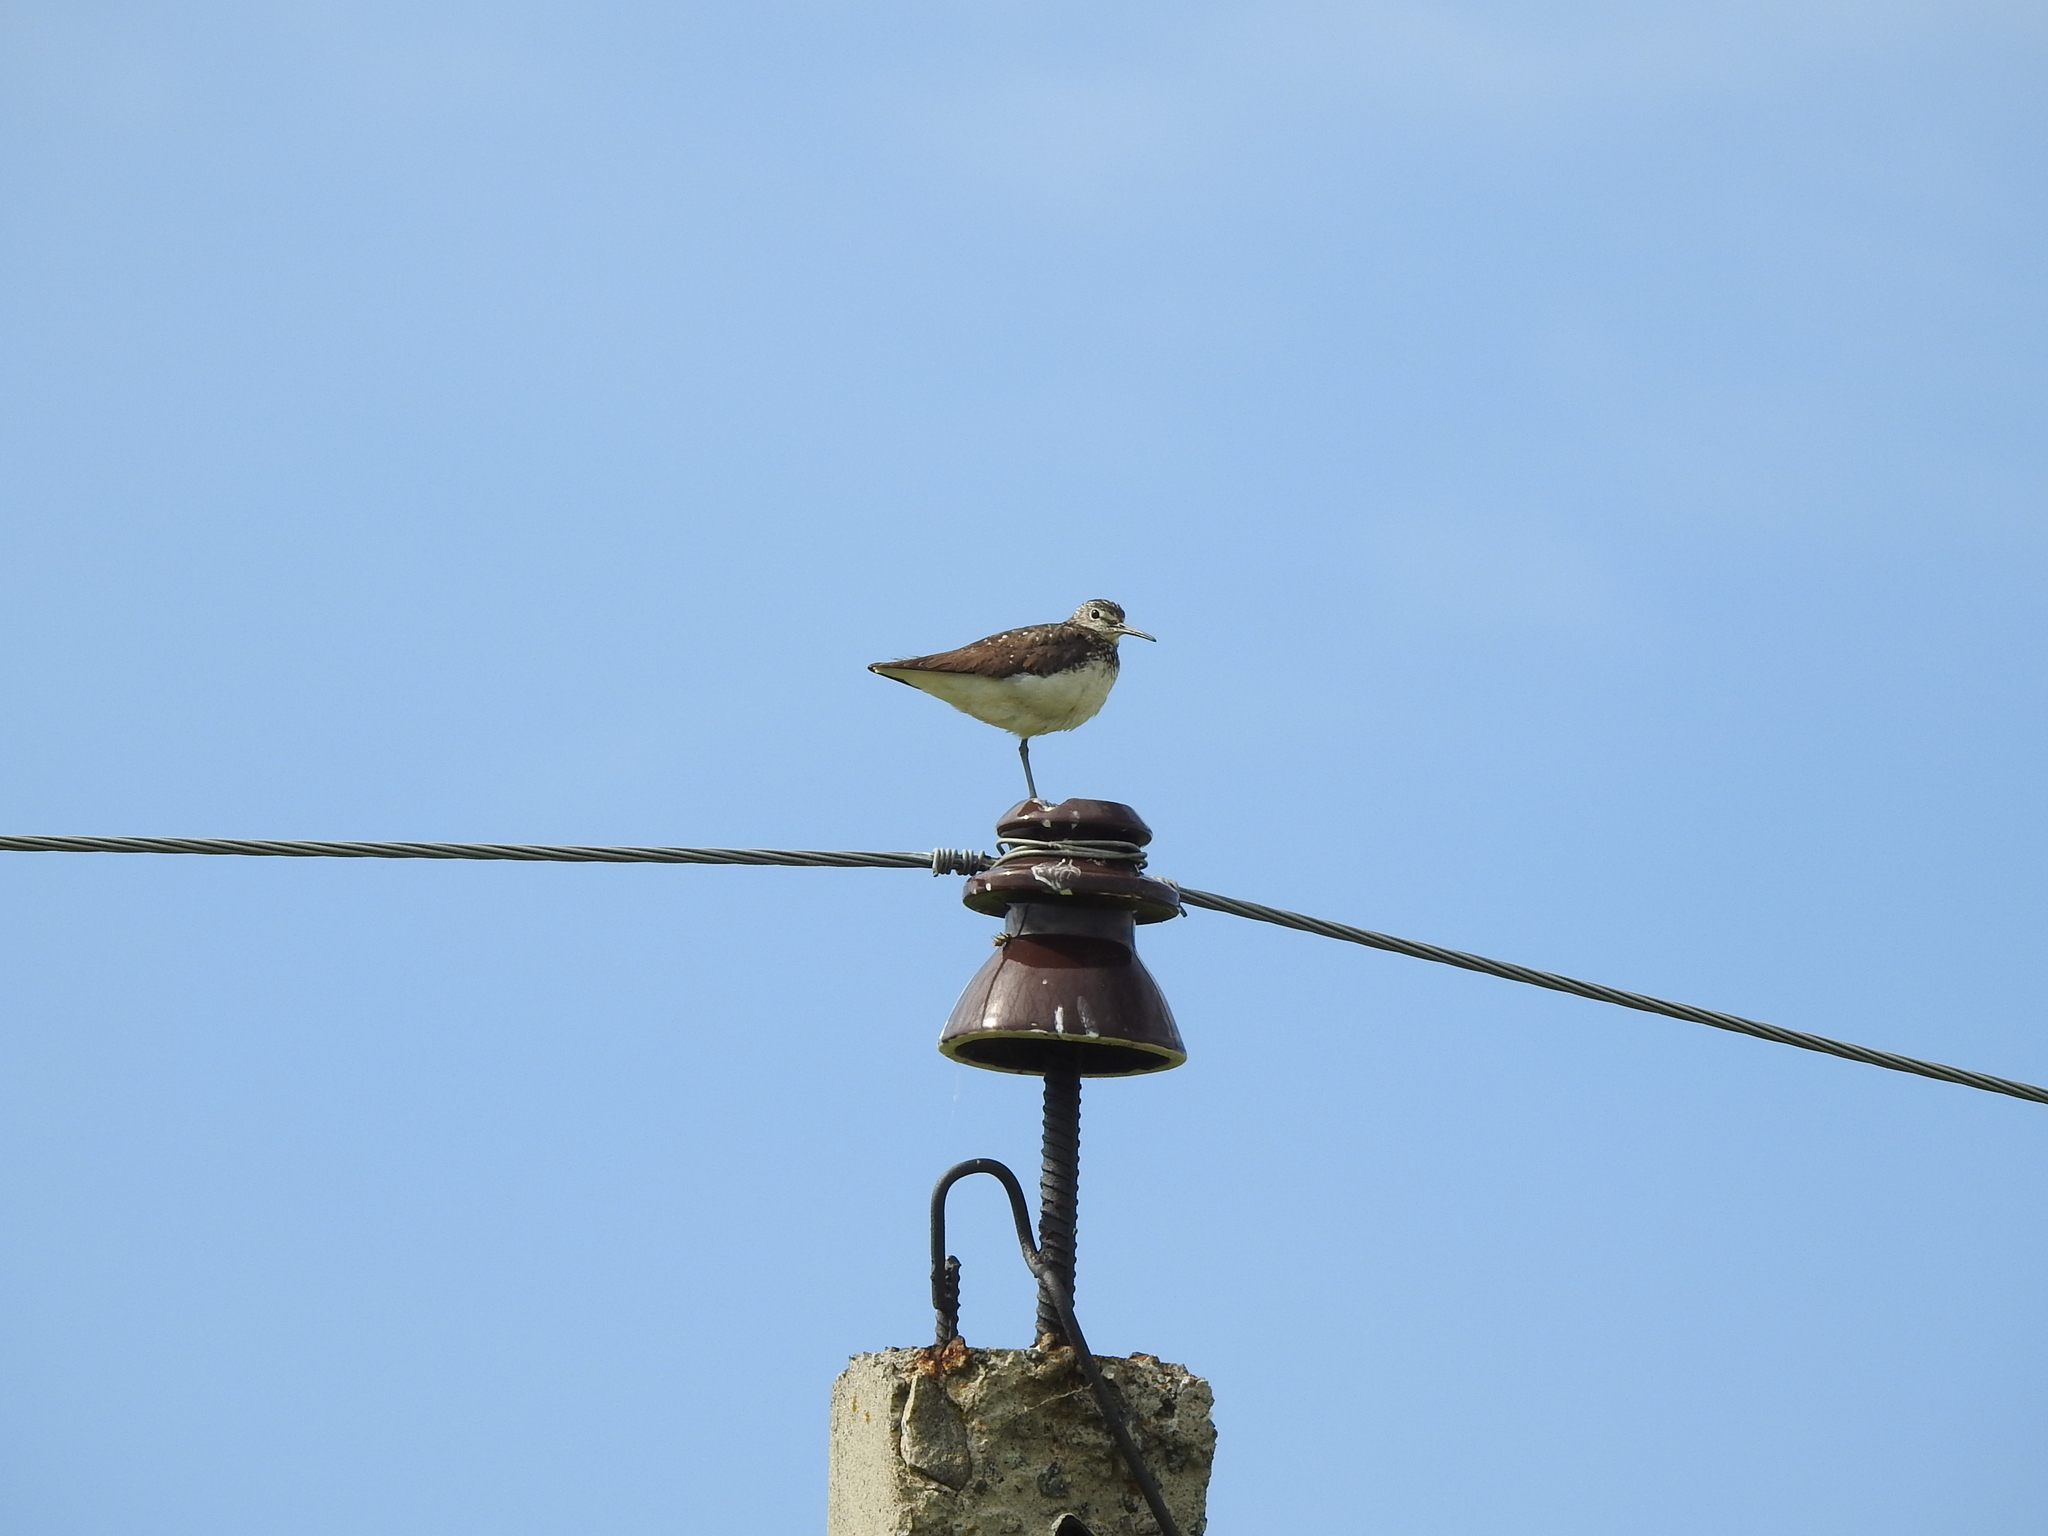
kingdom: Animalia
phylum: Chordata
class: Aves
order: Charadriiformes
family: Scolopacidae
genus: Tringa
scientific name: Tringa ochropus
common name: Green sandpiper
